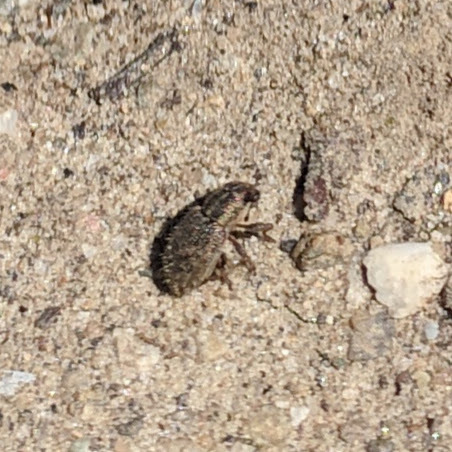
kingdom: Animalia
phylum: Arthropoda
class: Insecta
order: Coleoptera
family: Curculionidae
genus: Sitona
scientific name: Sitona hispidulus
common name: Clover weevil
